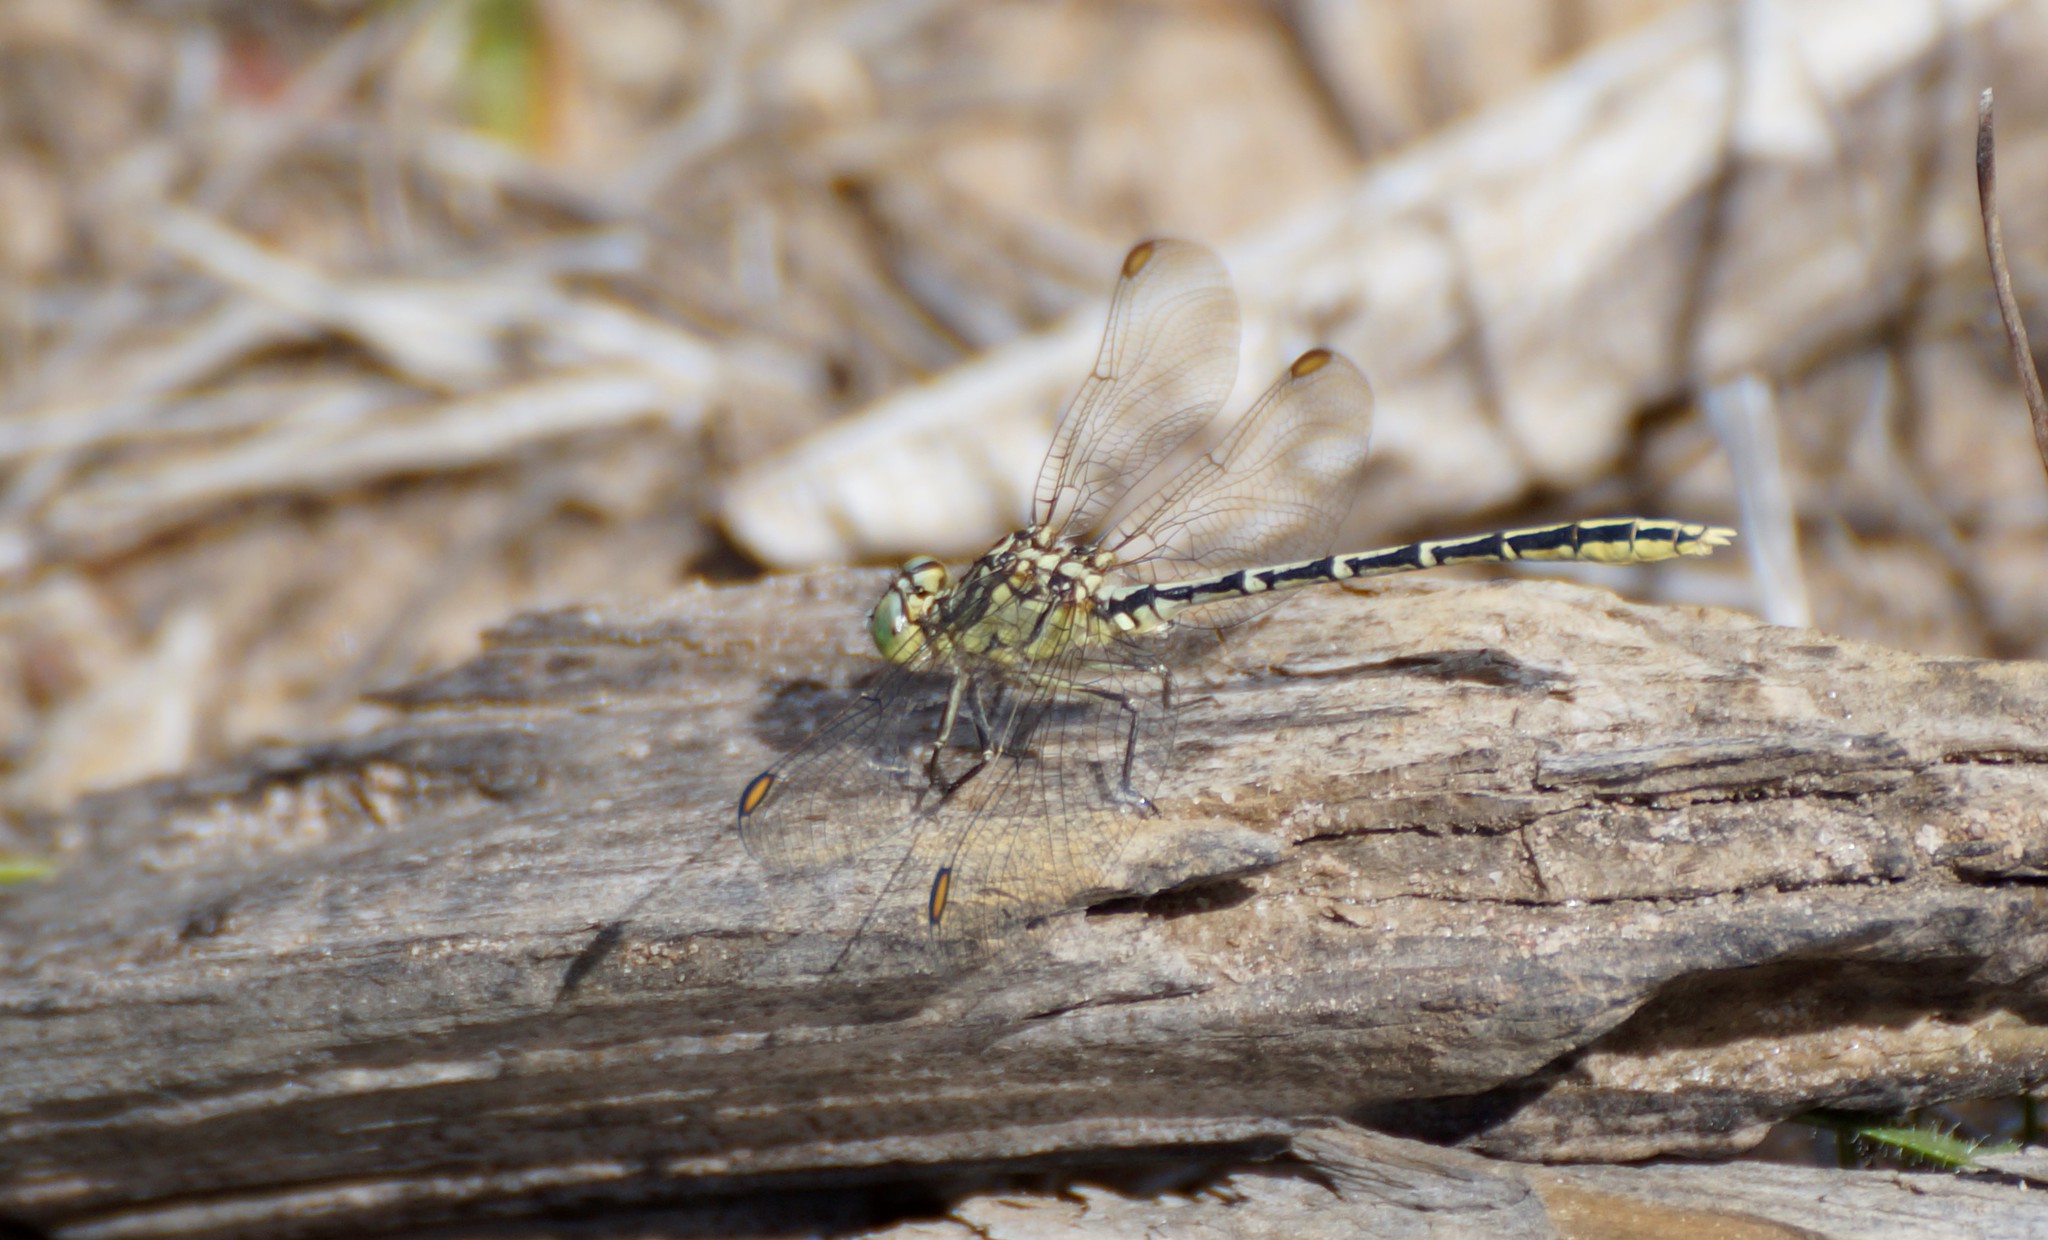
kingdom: Animalia
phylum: Arthropoda
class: Insecta
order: Odonata
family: Gomphidae
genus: Austrogomphus
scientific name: Austrogomphus guerini
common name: Yellow-striped hunter
